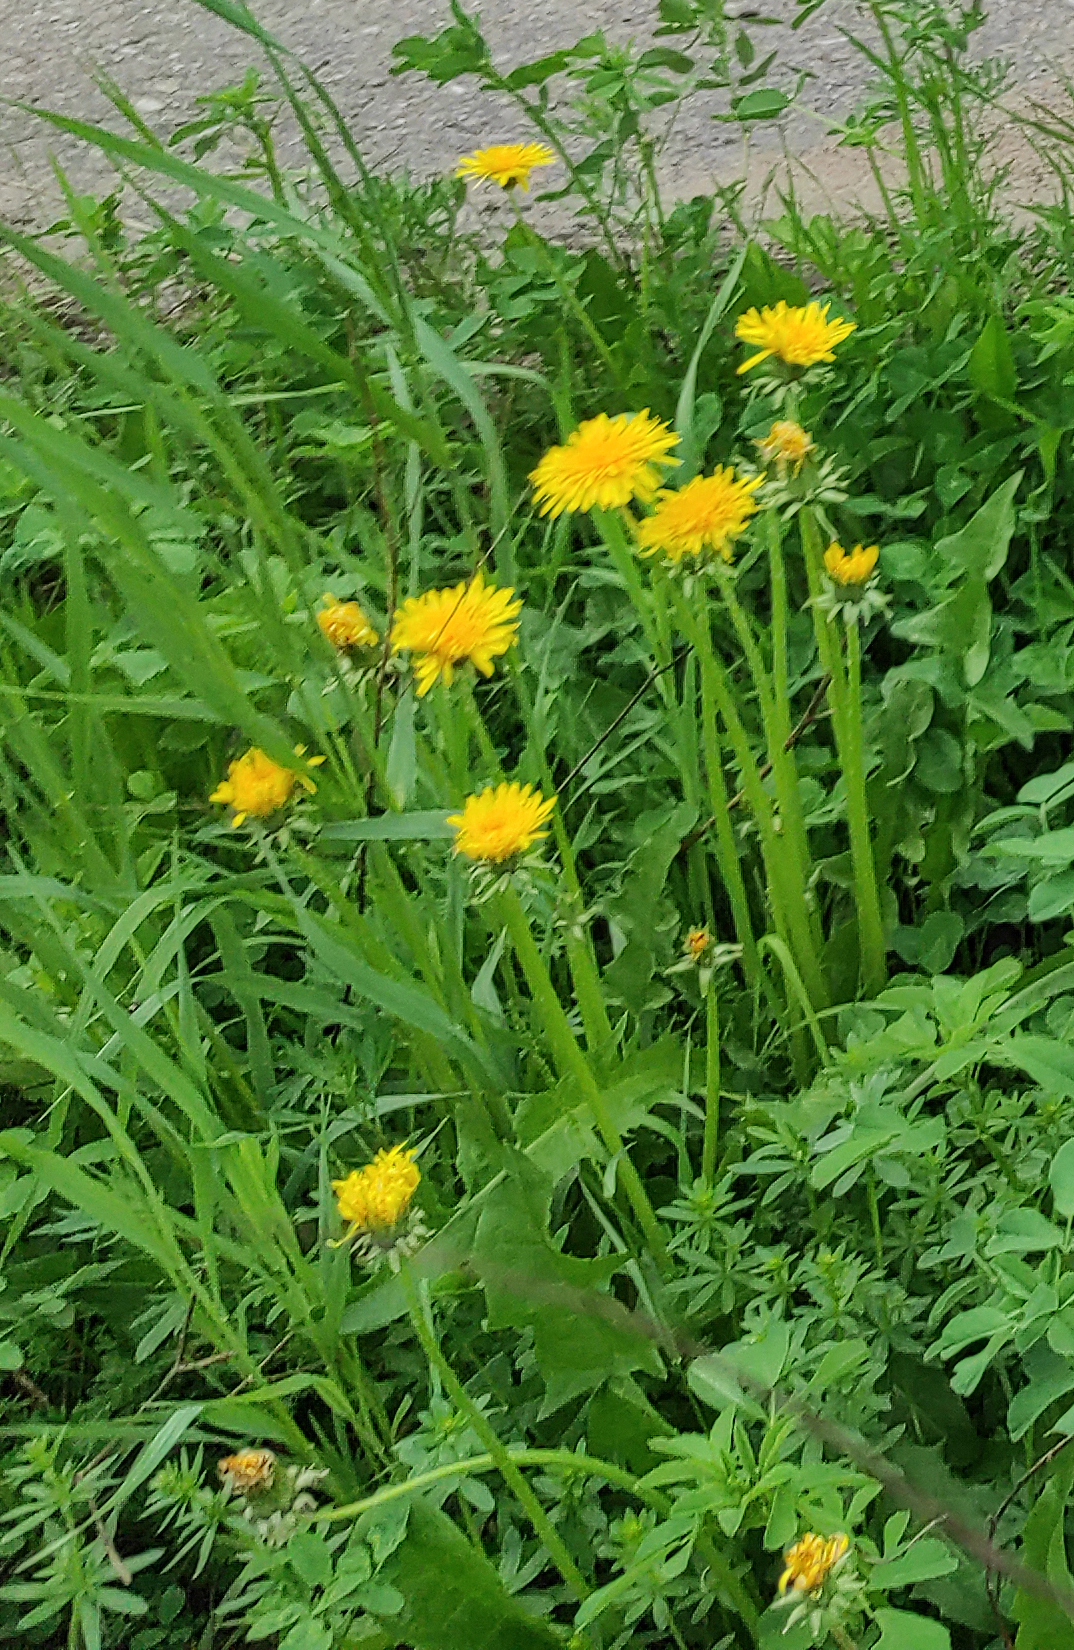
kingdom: Plantae
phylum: Tracheophyta
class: Magnoliopsida
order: Asterales
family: Asteraceae
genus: Taraxacum
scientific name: Taraxacum officinale
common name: Common dandelion
